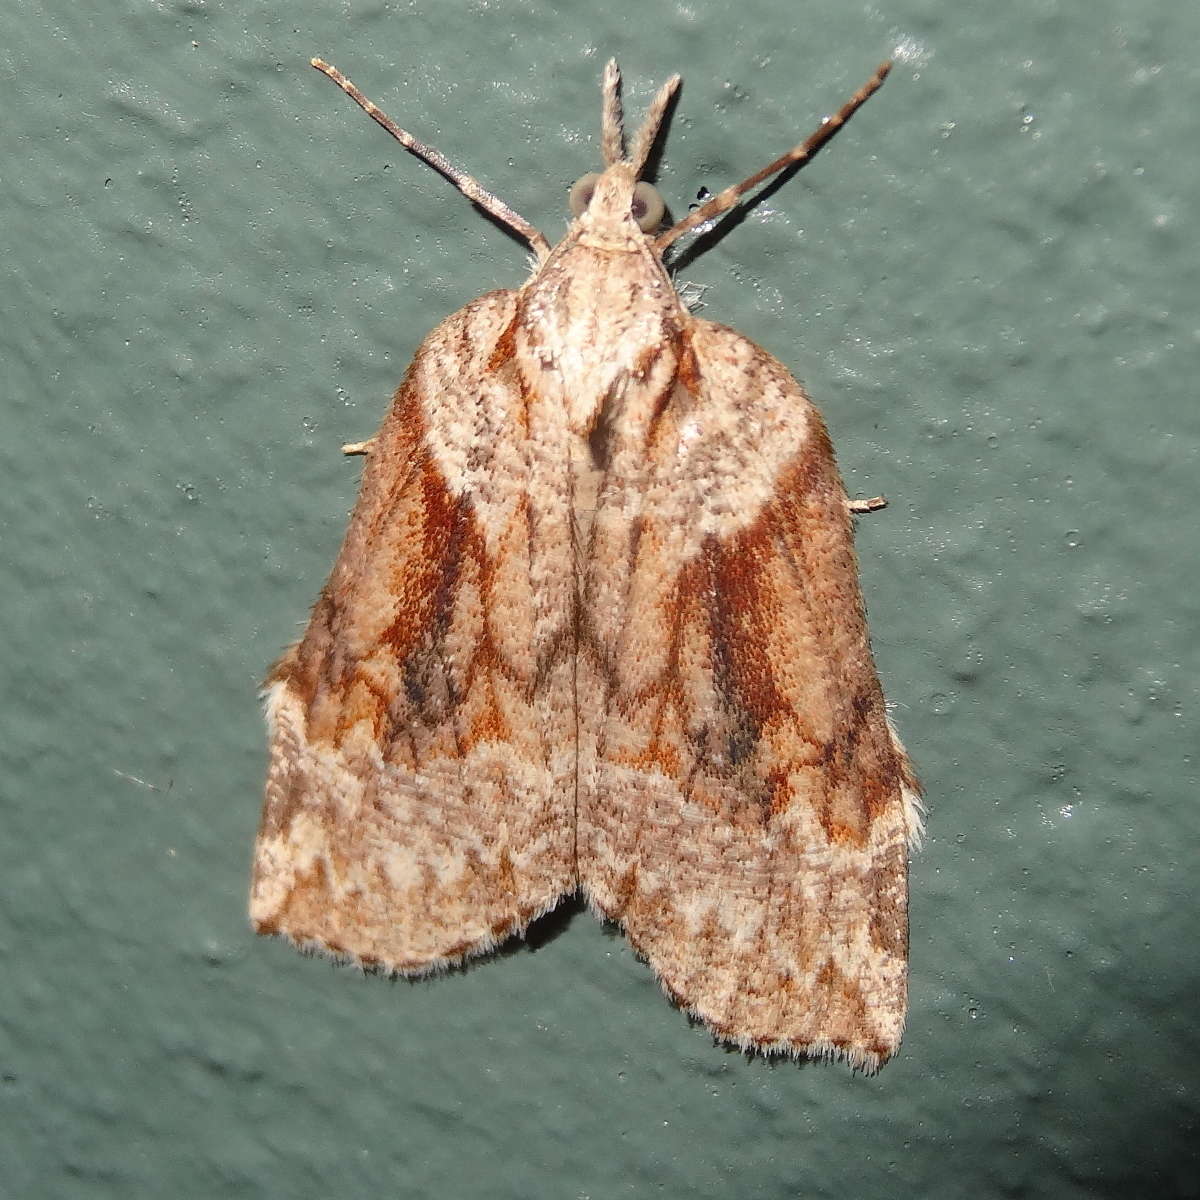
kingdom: Animalia
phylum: Arthropoda
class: Insecta
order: Lepidoptera
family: Geometridae
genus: Neoteristis
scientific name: Neoteristis paraphanes
